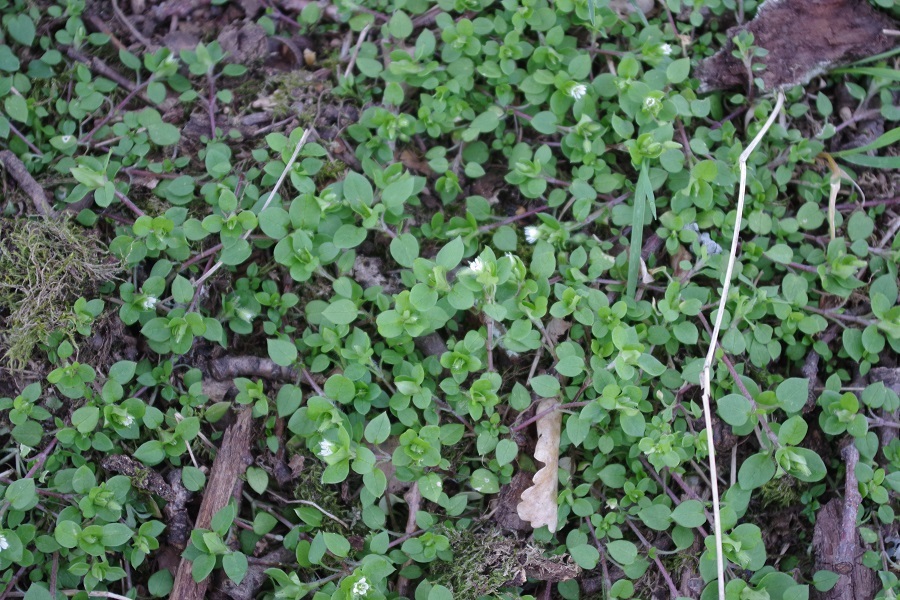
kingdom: Plantae
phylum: Tracheophyta
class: Magnoliopsida
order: Caryophyllales
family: Caryophyllaceae
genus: Stellaria
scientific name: Stellaria media
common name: Common chickweed
